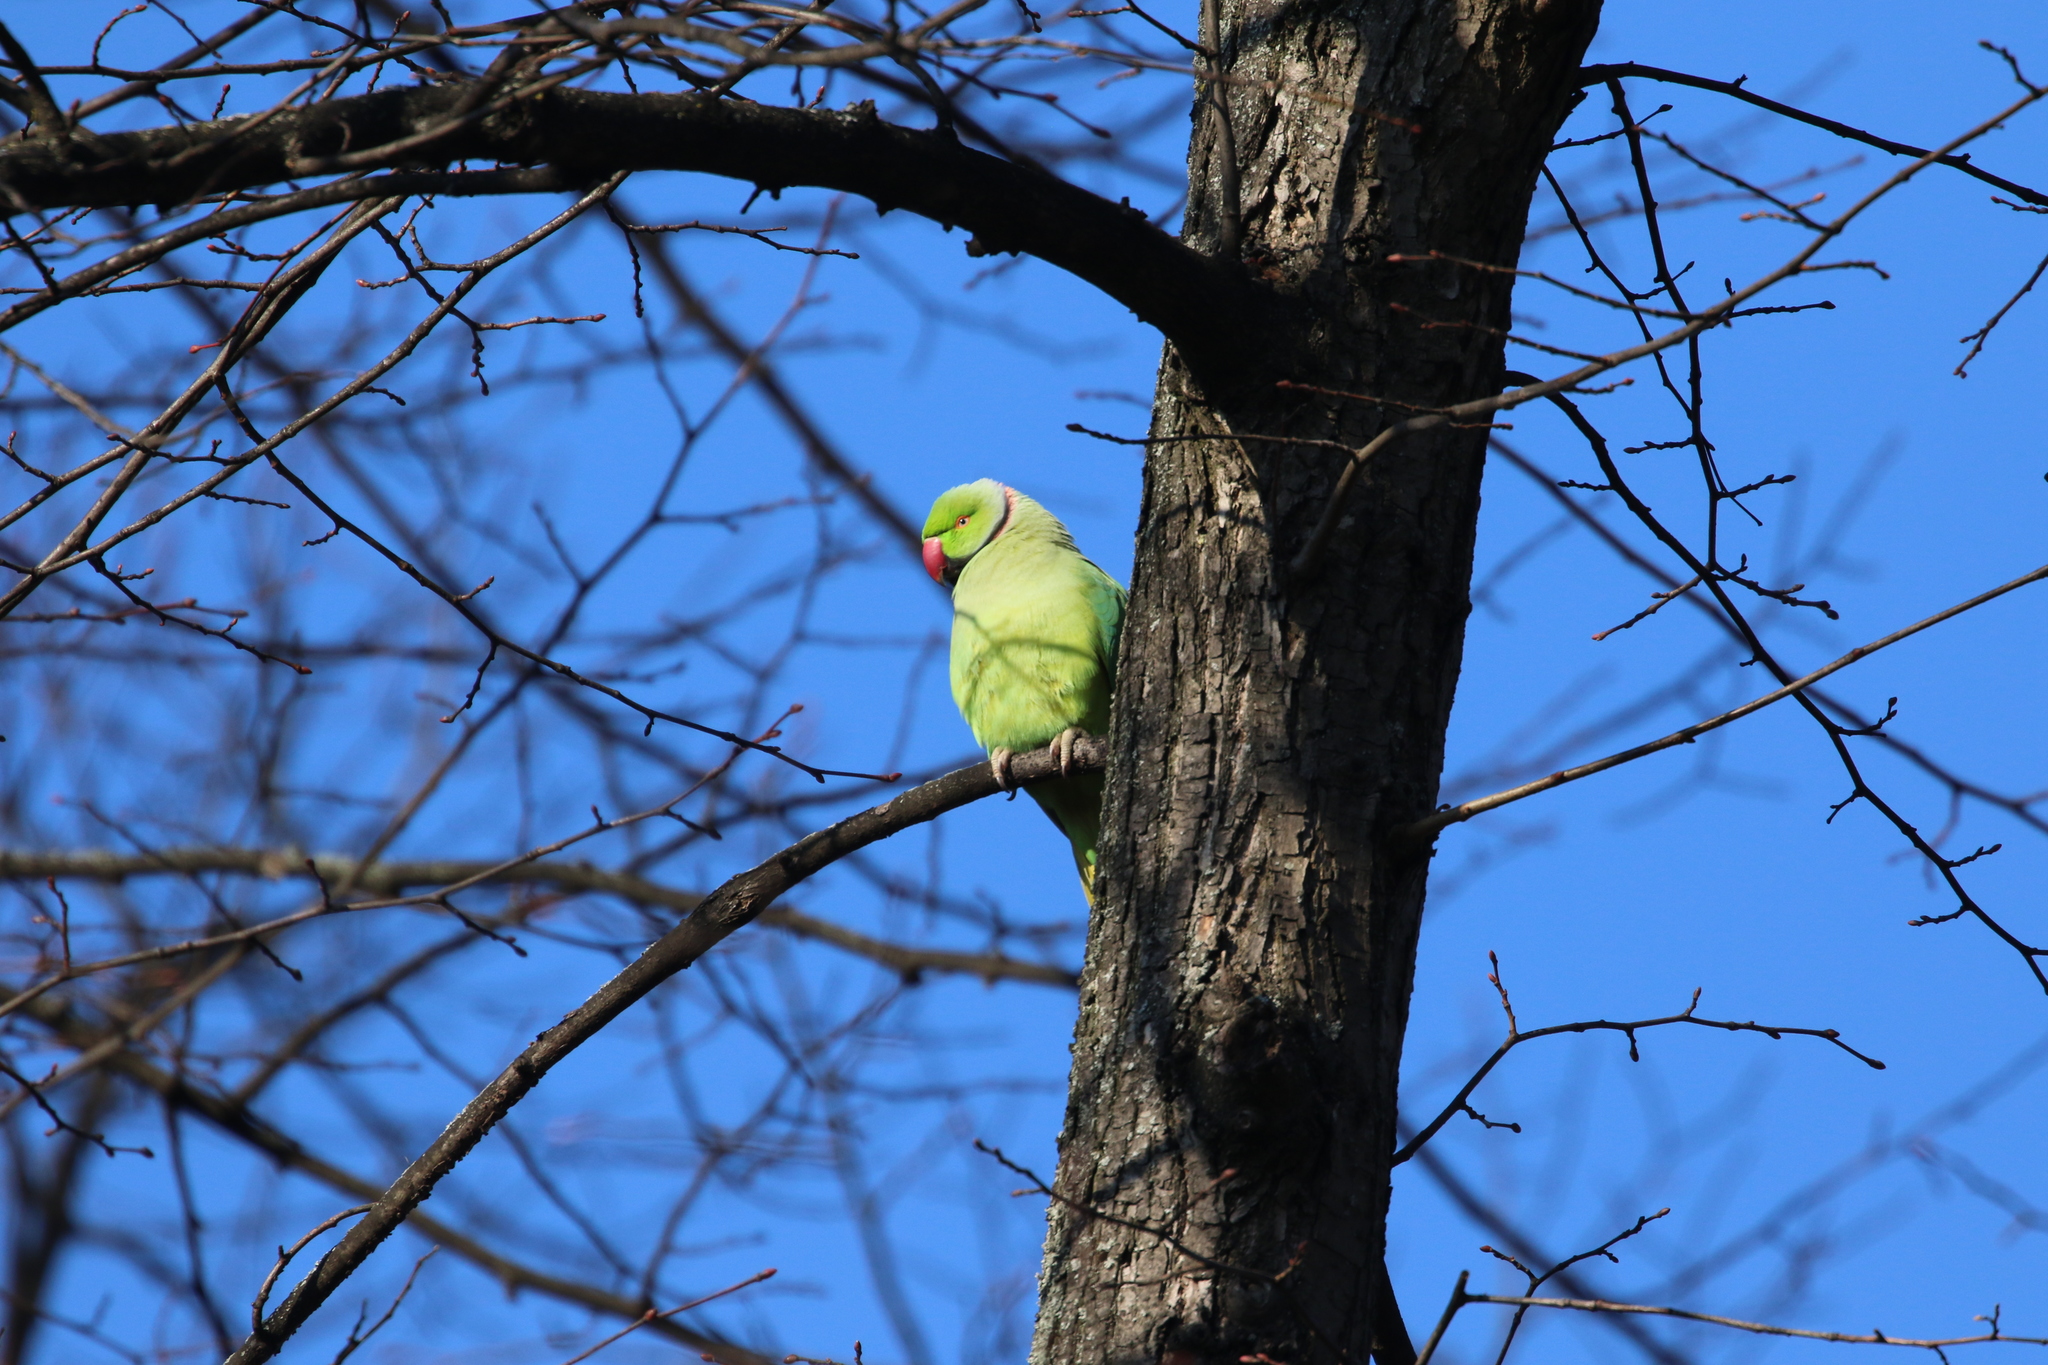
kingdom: Animalia
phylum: Chordata
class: Aves
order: Psittaciformes
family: Psittacidae
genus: Psittacula
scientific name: Psittacula krameri
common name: Rose-ringed parakeet
